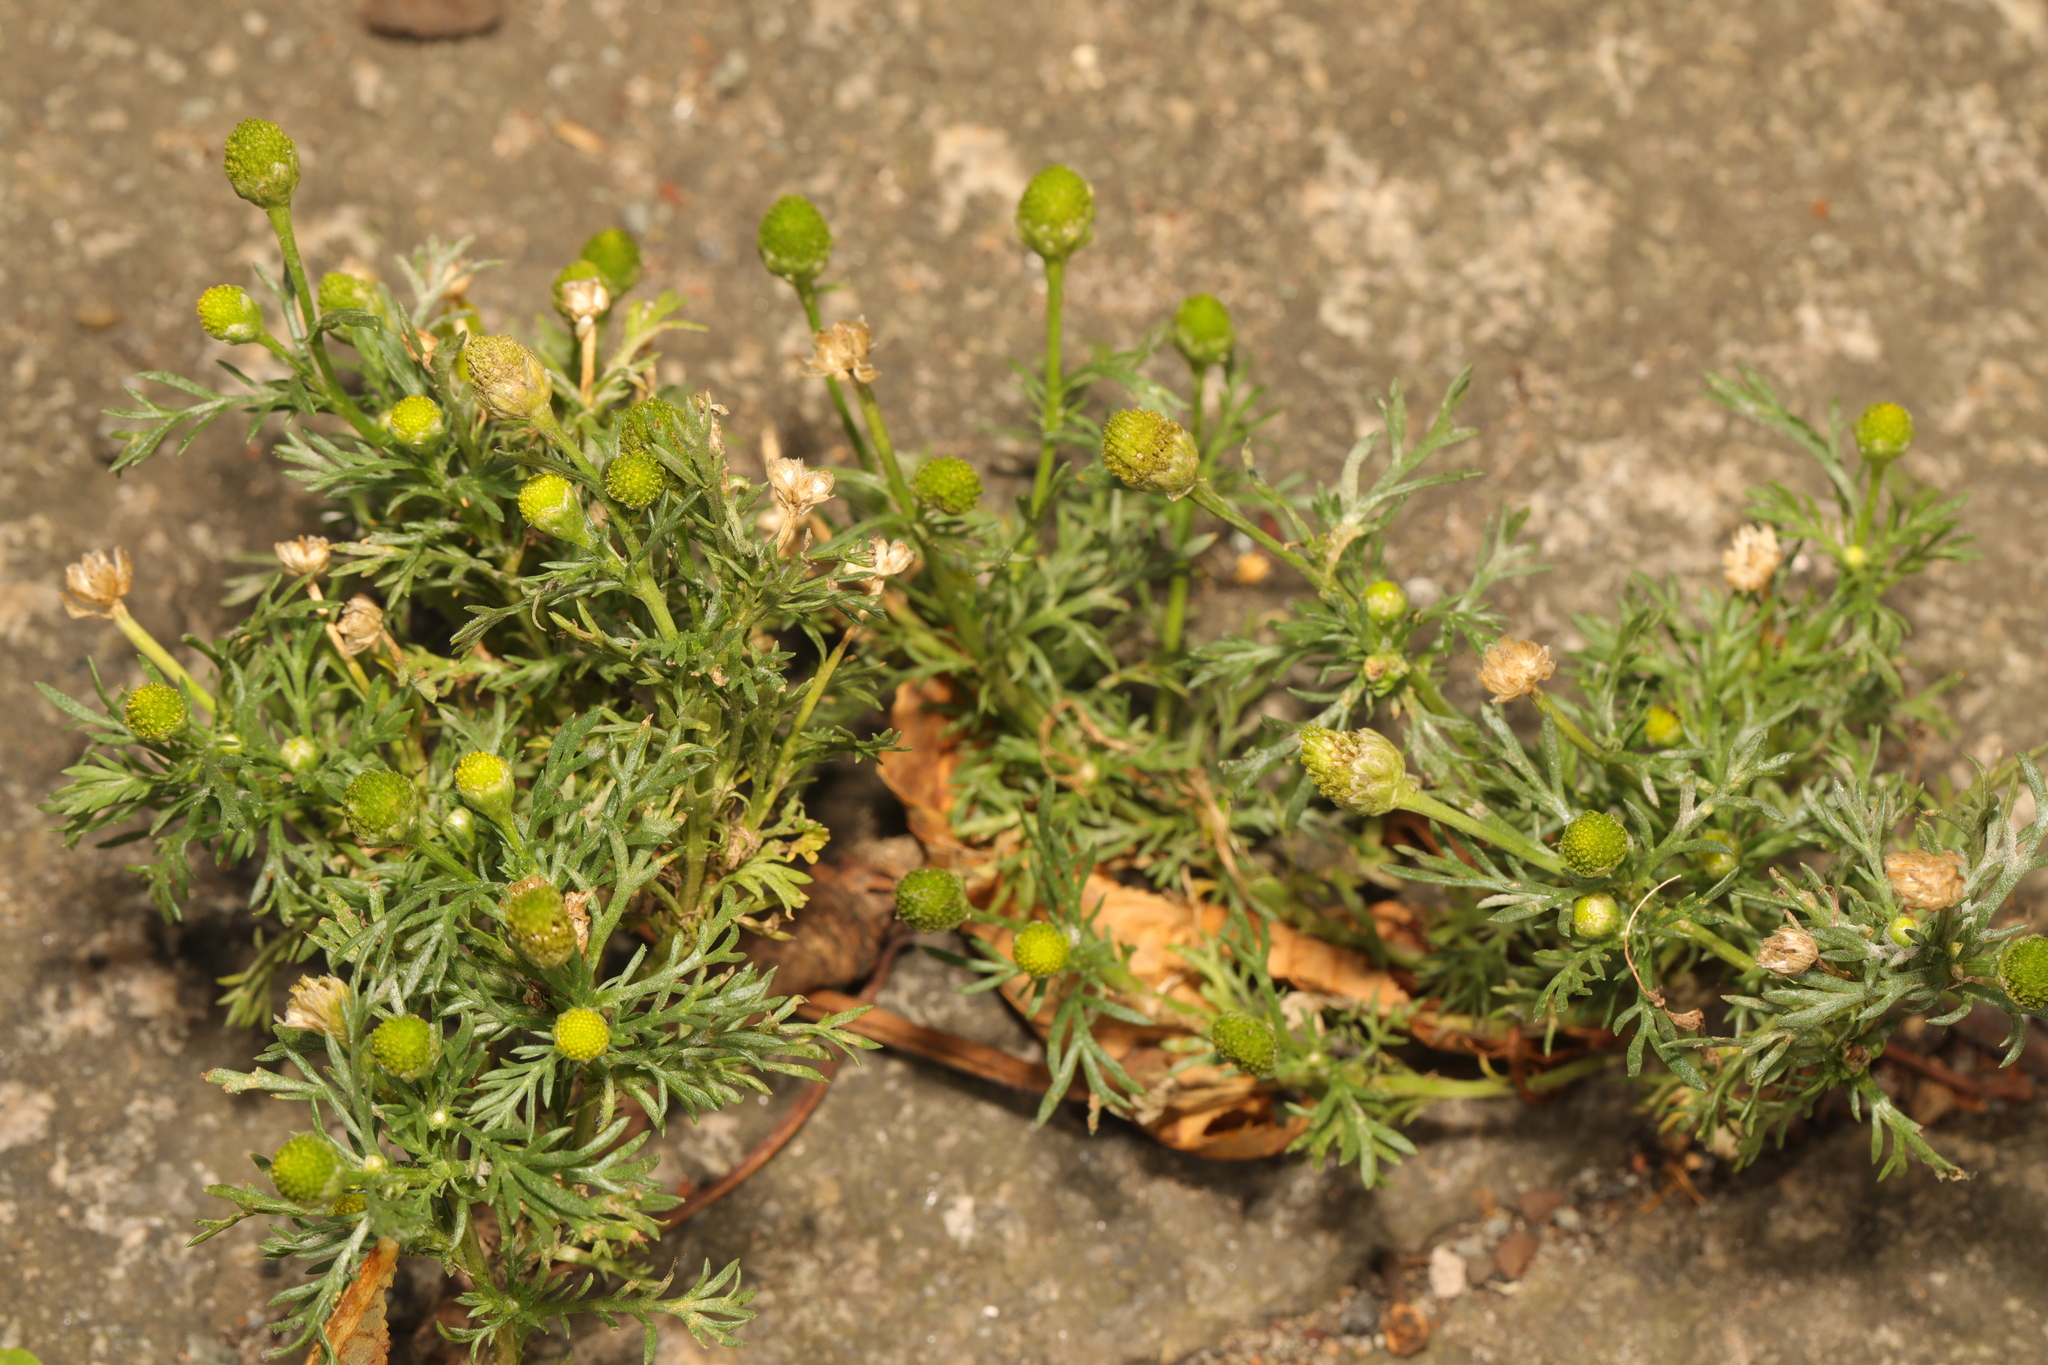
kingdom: Plantae
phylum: Tracheophyta
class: Magnoliopsida
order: Asterales
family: Asteraceae
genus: Matricaria
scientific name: Matricaria discoidea
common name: Disc mayweed
